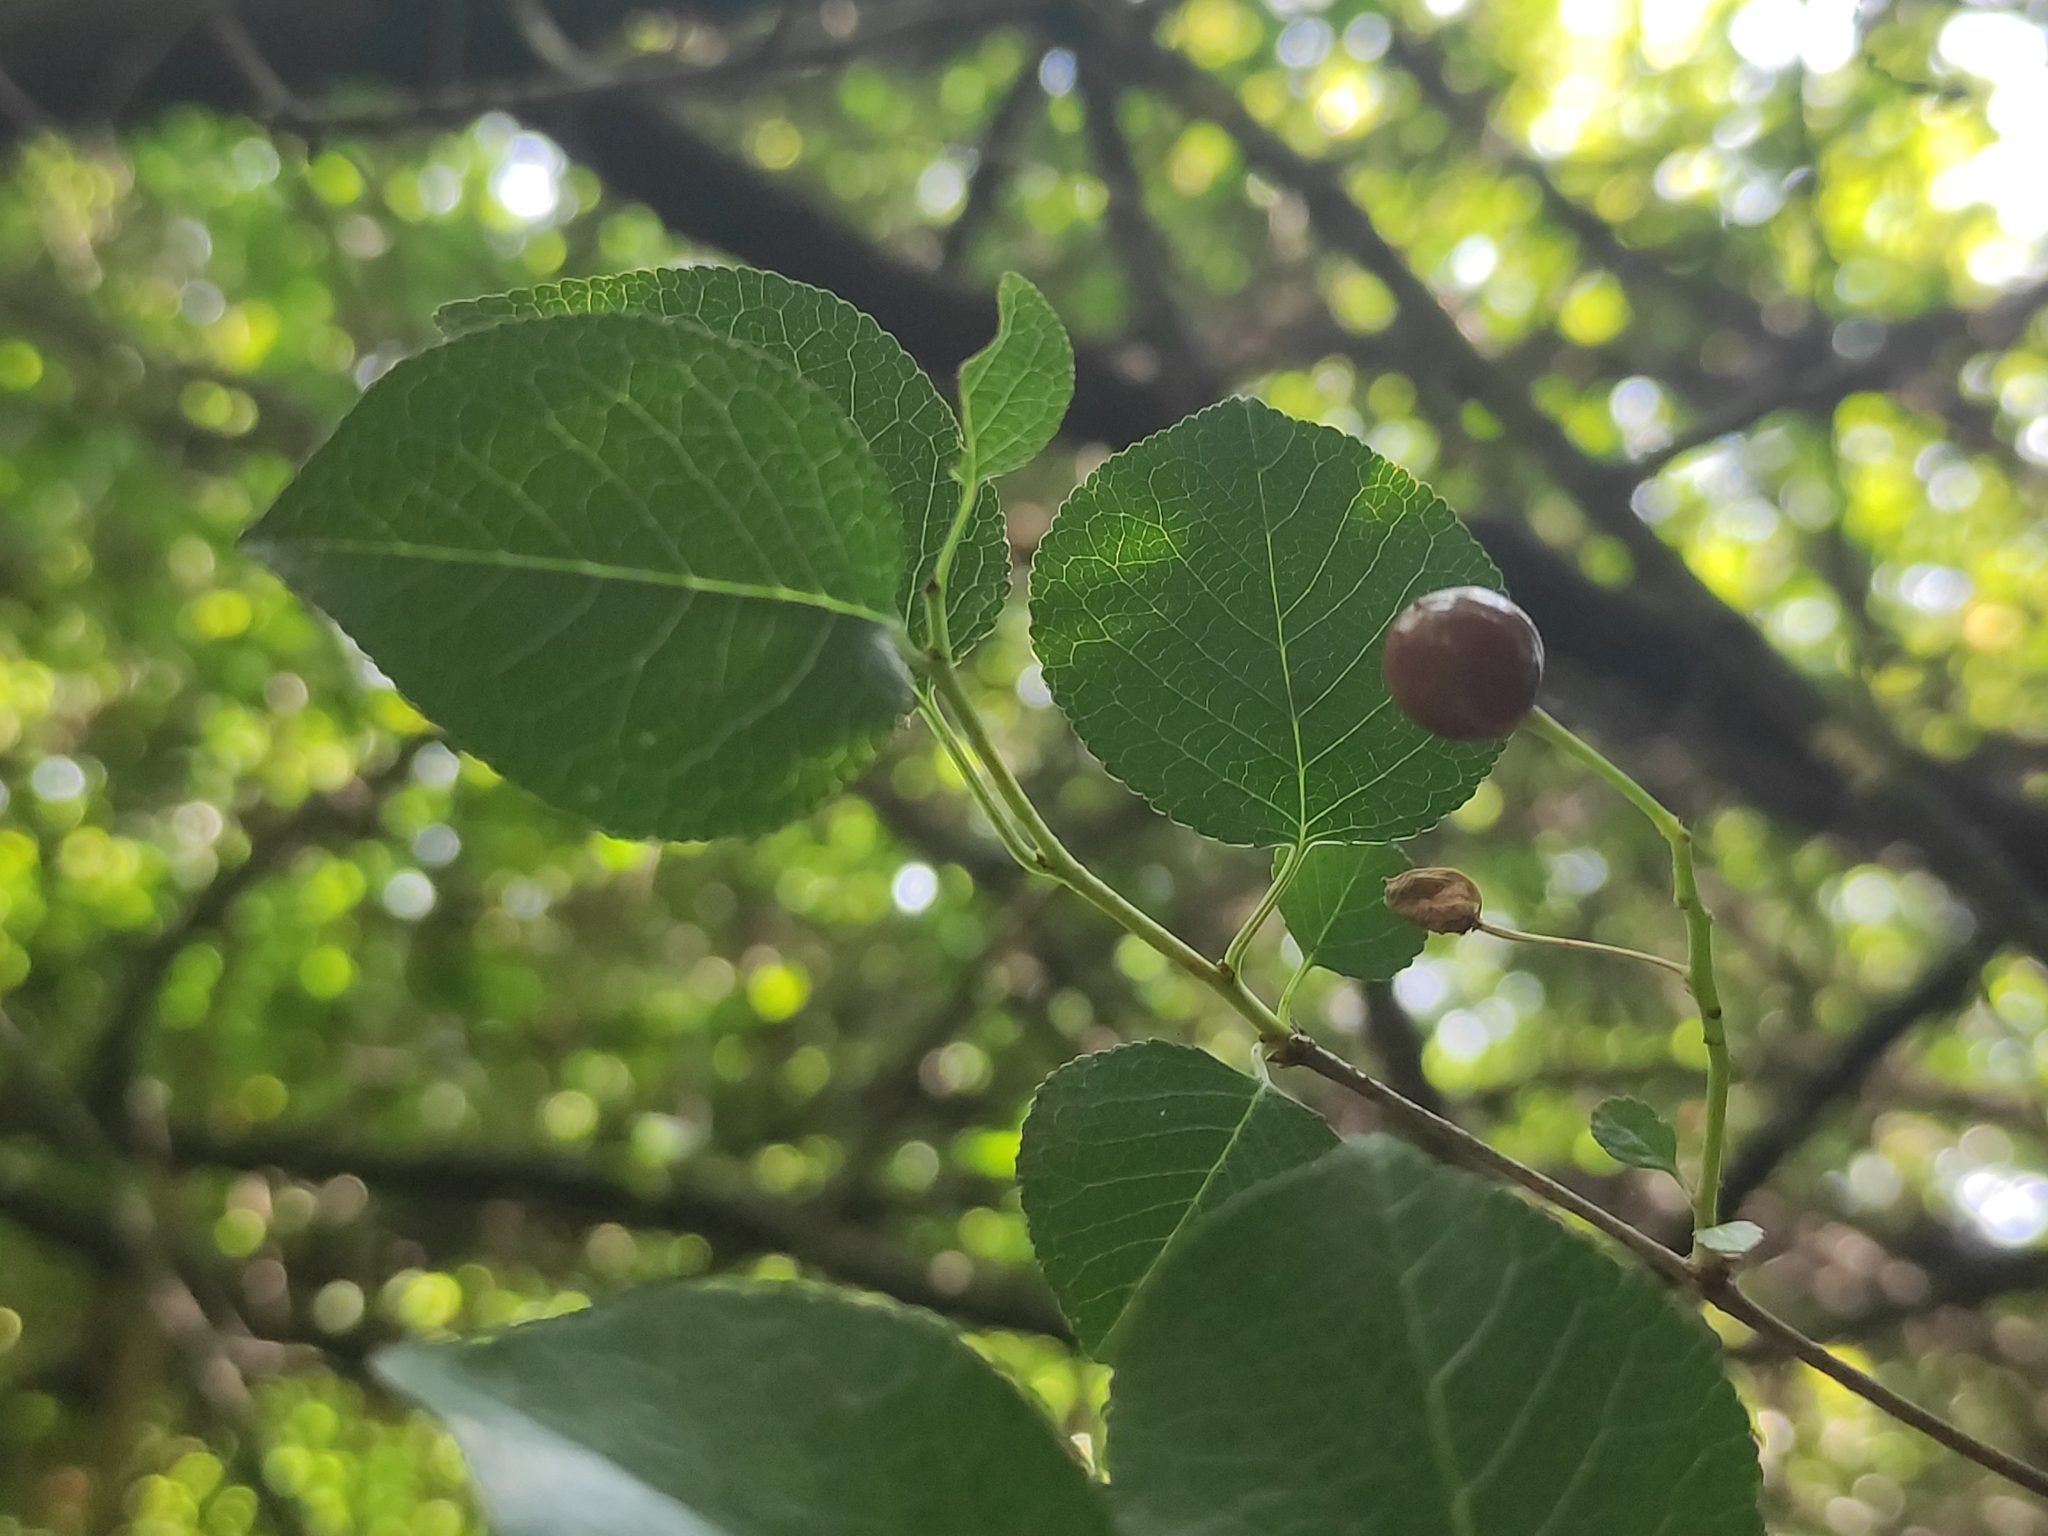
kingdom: Plantae
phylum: Tracheophyta
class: Magnoliopsida
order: Rosales
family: Rosaceae
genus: Prunus
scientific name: Prunus mahaleb
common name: Mahaleb cherry
